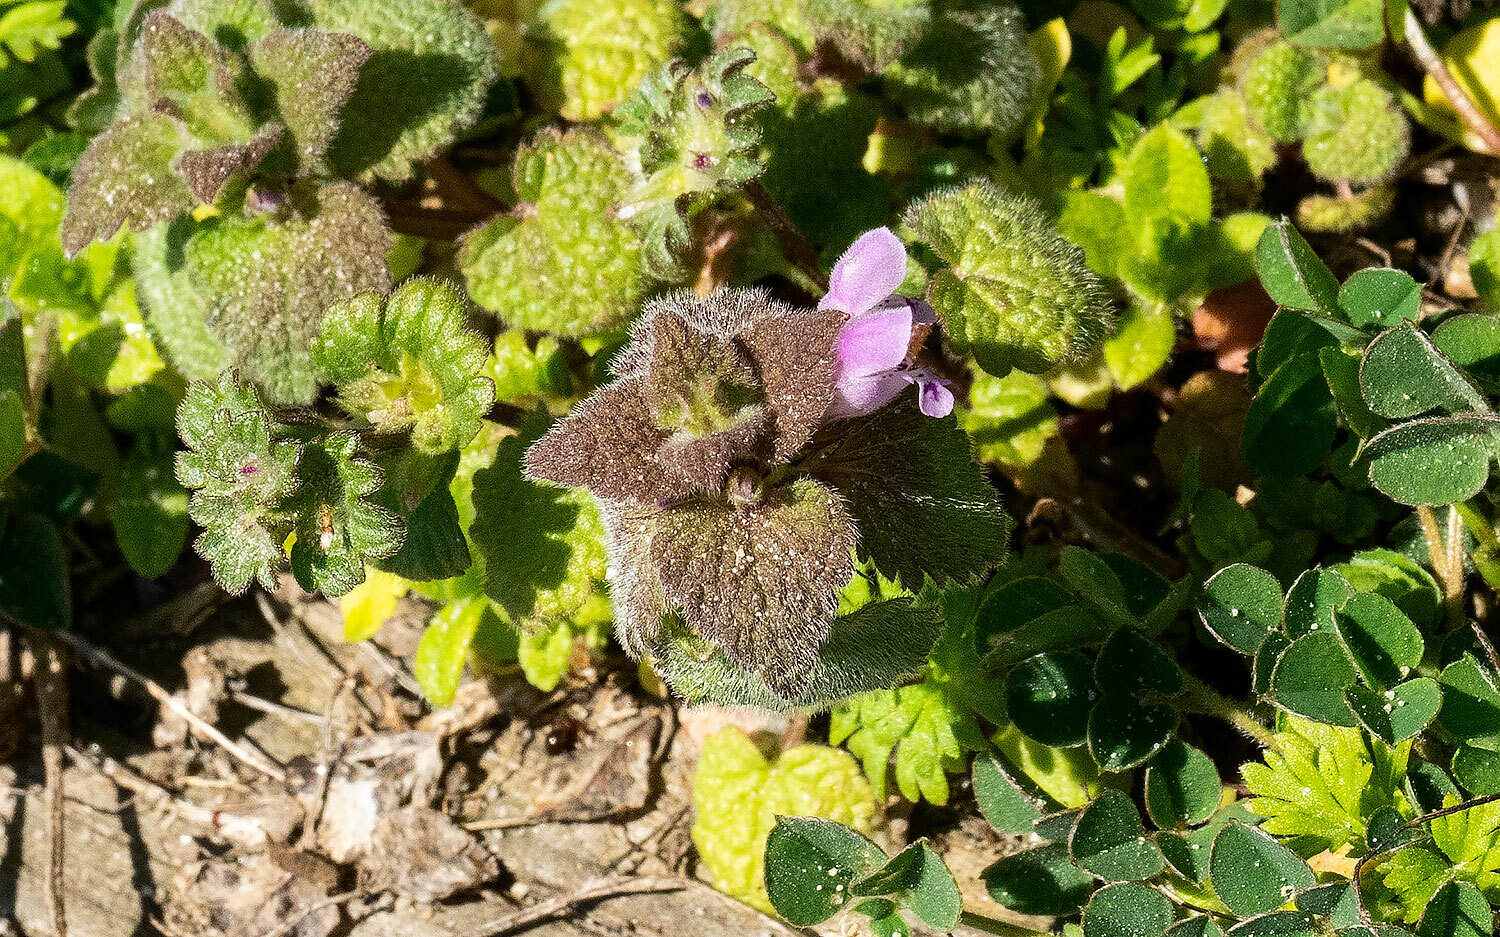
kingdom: Plantae
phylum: Tracheophyta
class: Magnoliopsida
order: Lamiales
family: Lamiaceae
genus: Lamium
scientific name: Lamium purpureum
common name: Red dead-nettle
